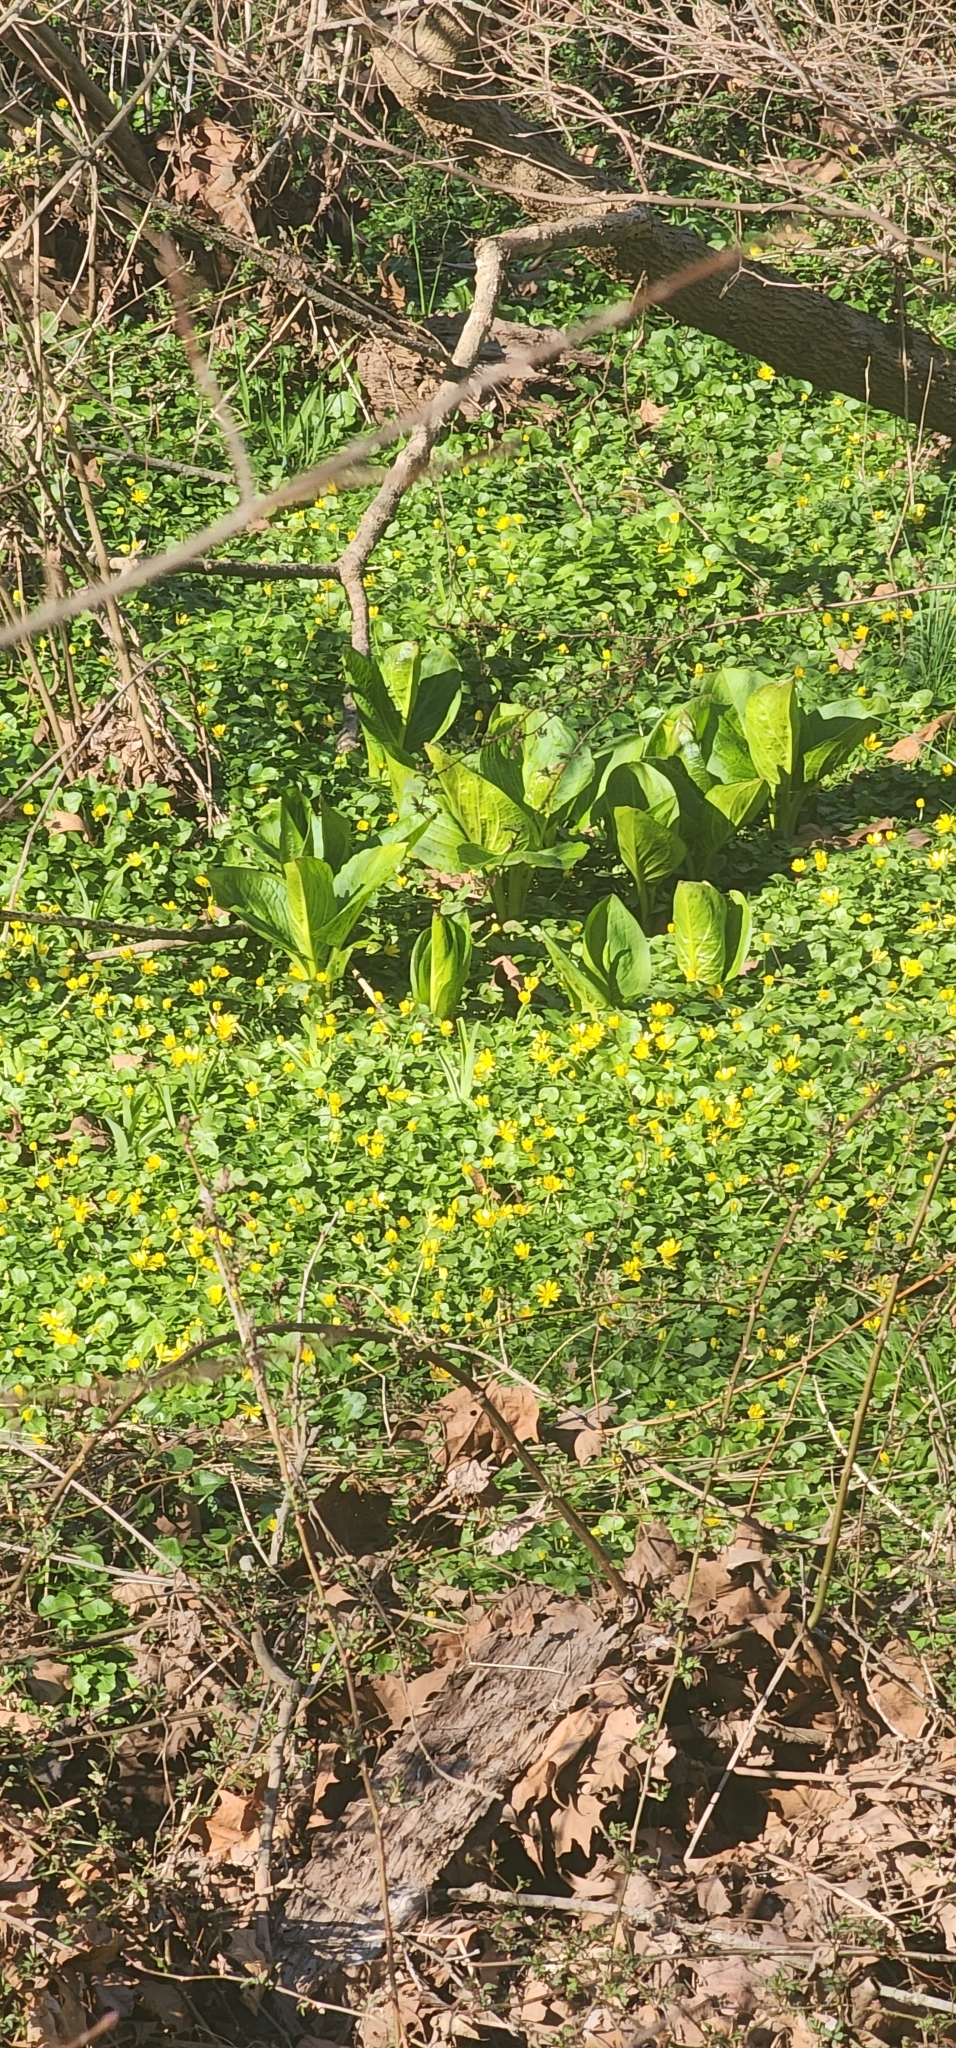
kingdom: Plantae
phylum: Tracheophyta
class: Liliopsida
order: Alismatales
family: Araceae
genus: Symplocarpus
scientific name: Symplocarpus foetidus
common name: Eastern skunk cabbage
